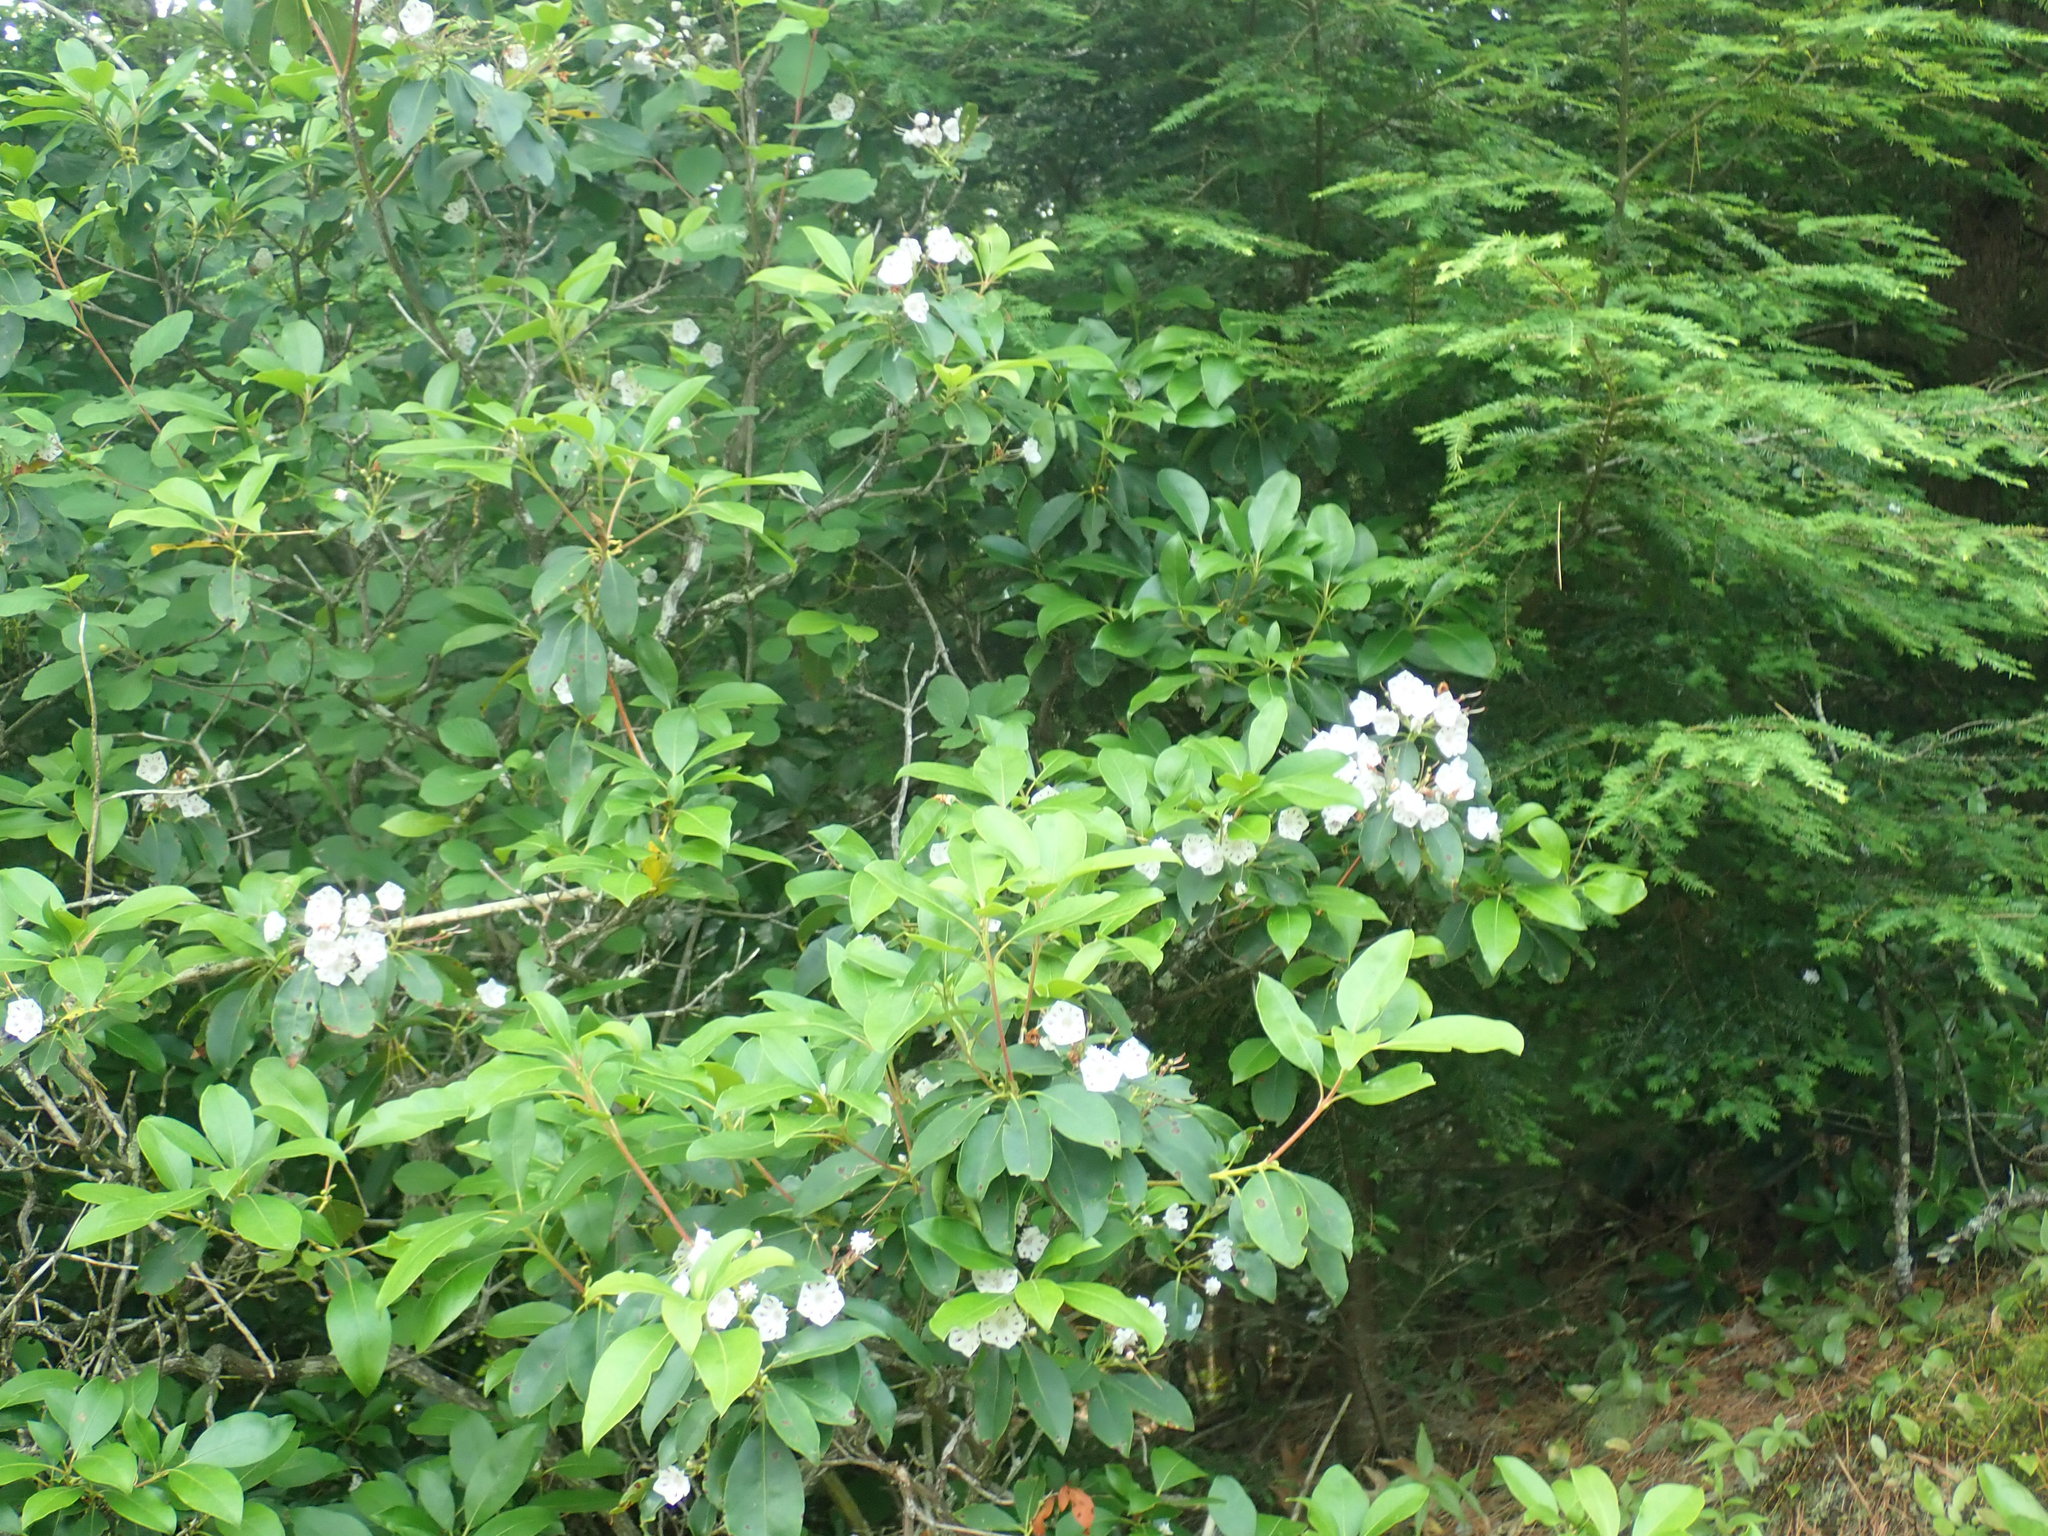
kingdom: Plantae
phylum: Tracheophyta
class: Magnoliopsida
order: Ericales
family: Ericaceae
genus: Kalmia
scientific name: Kalmia latifolia
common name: Mountain-laurel
